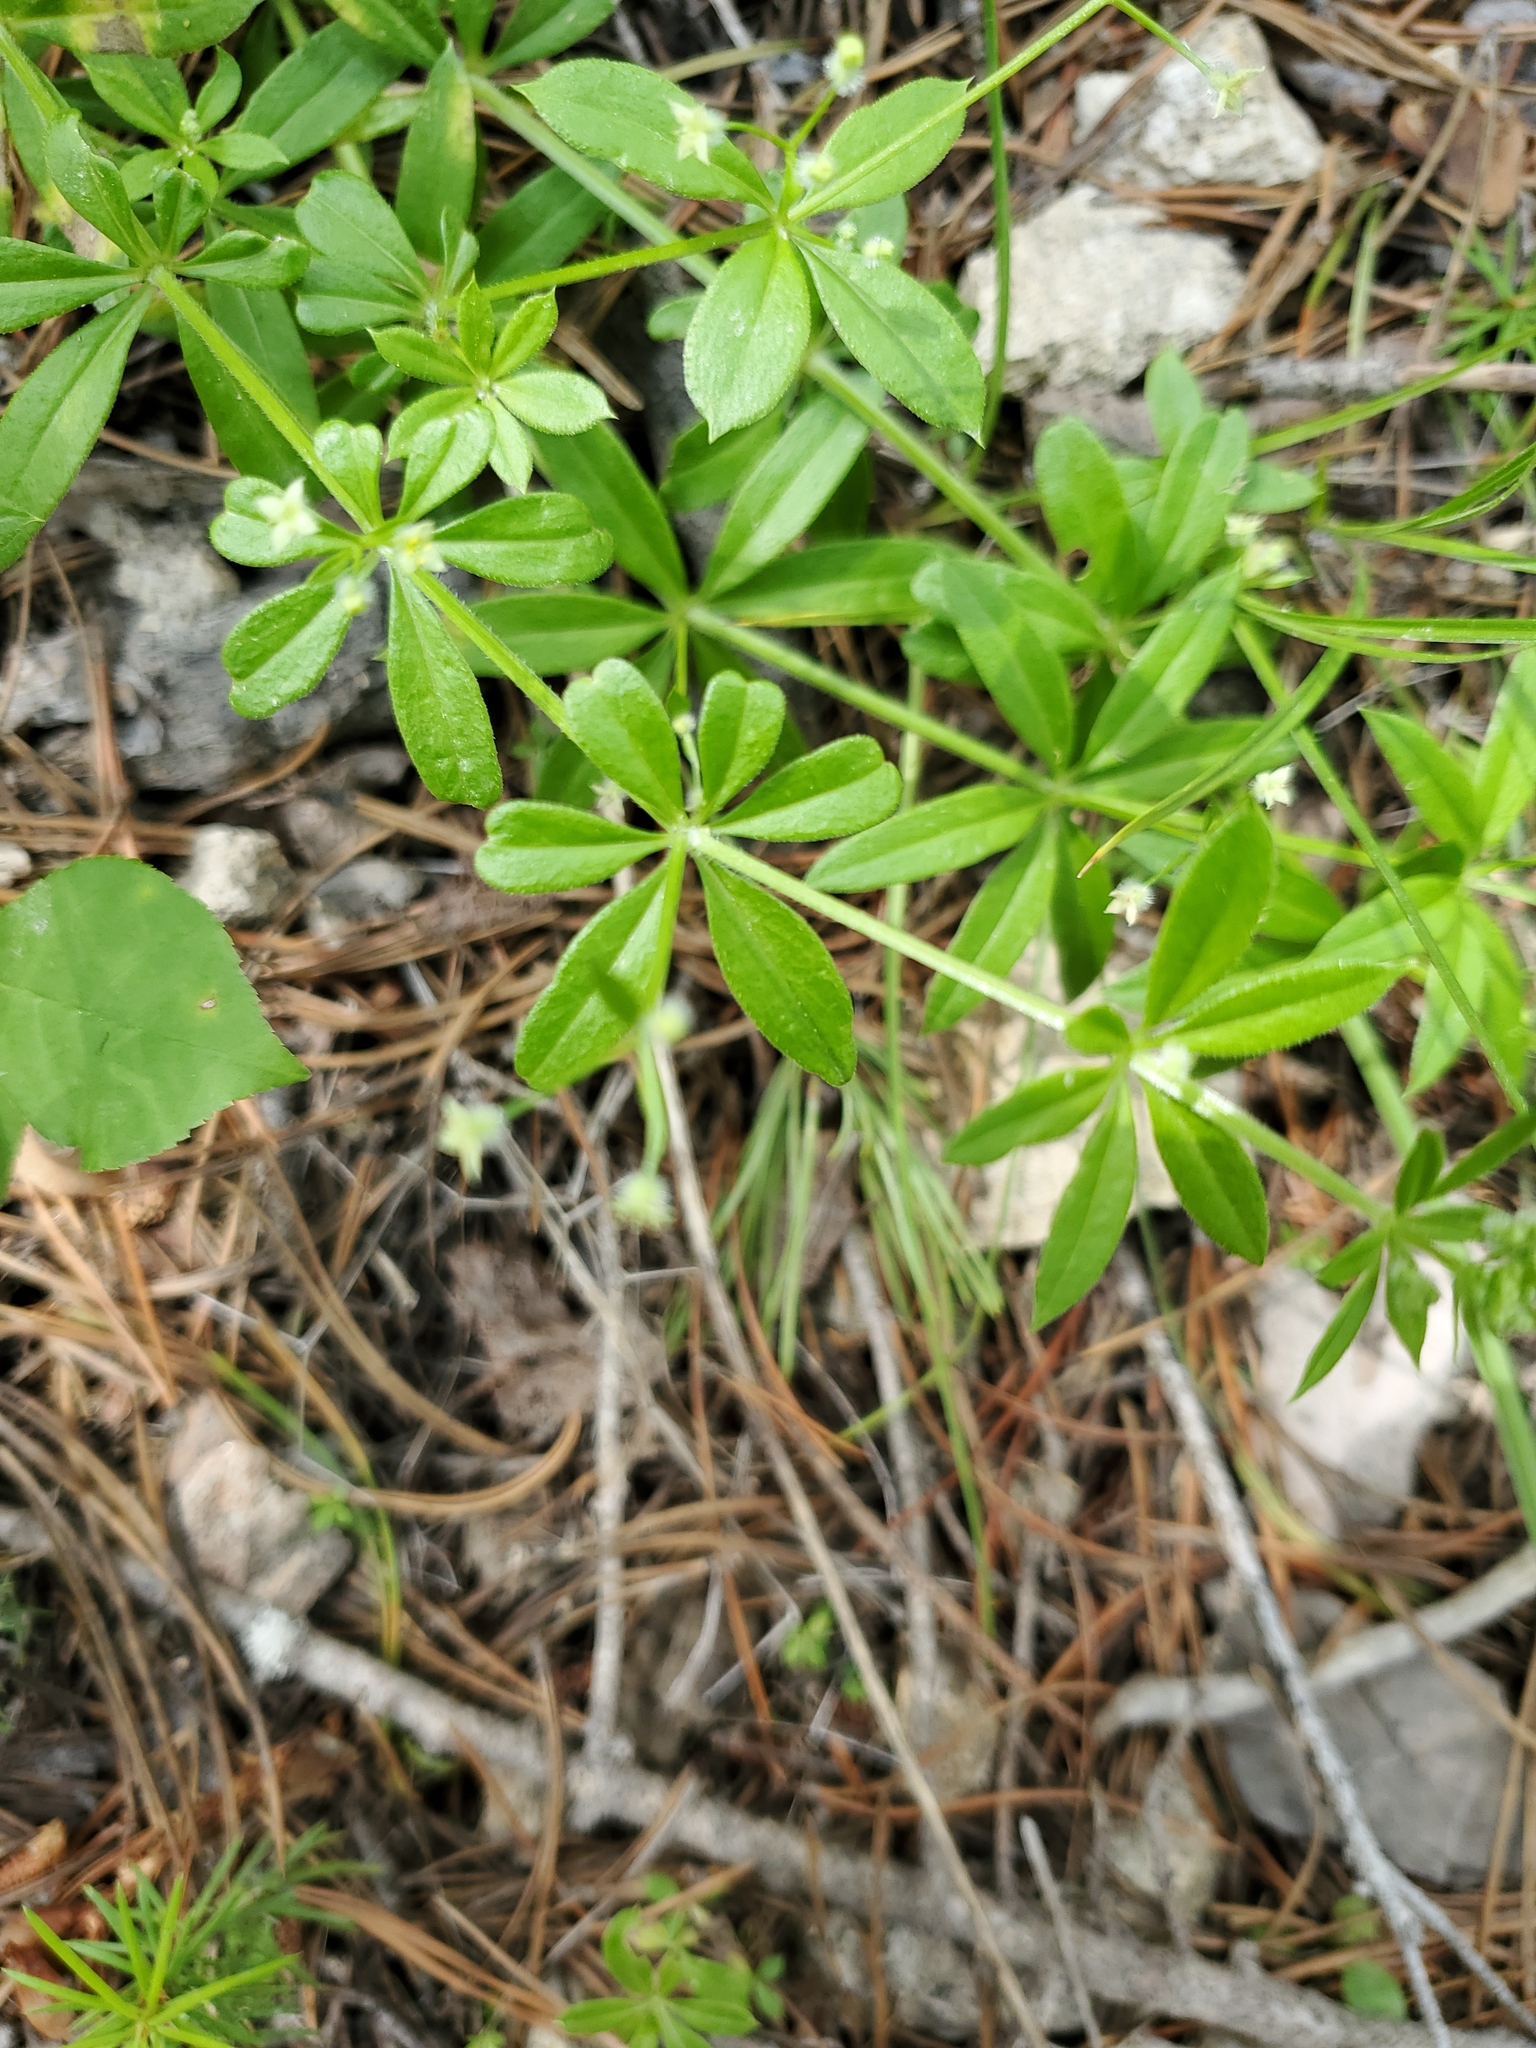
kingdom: Plantae
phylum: Tracheophyta
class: Magnoliopsida
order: Gentianales
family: Rubiaceae
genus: Galium
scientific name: Galium aparine
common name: Cleavers
